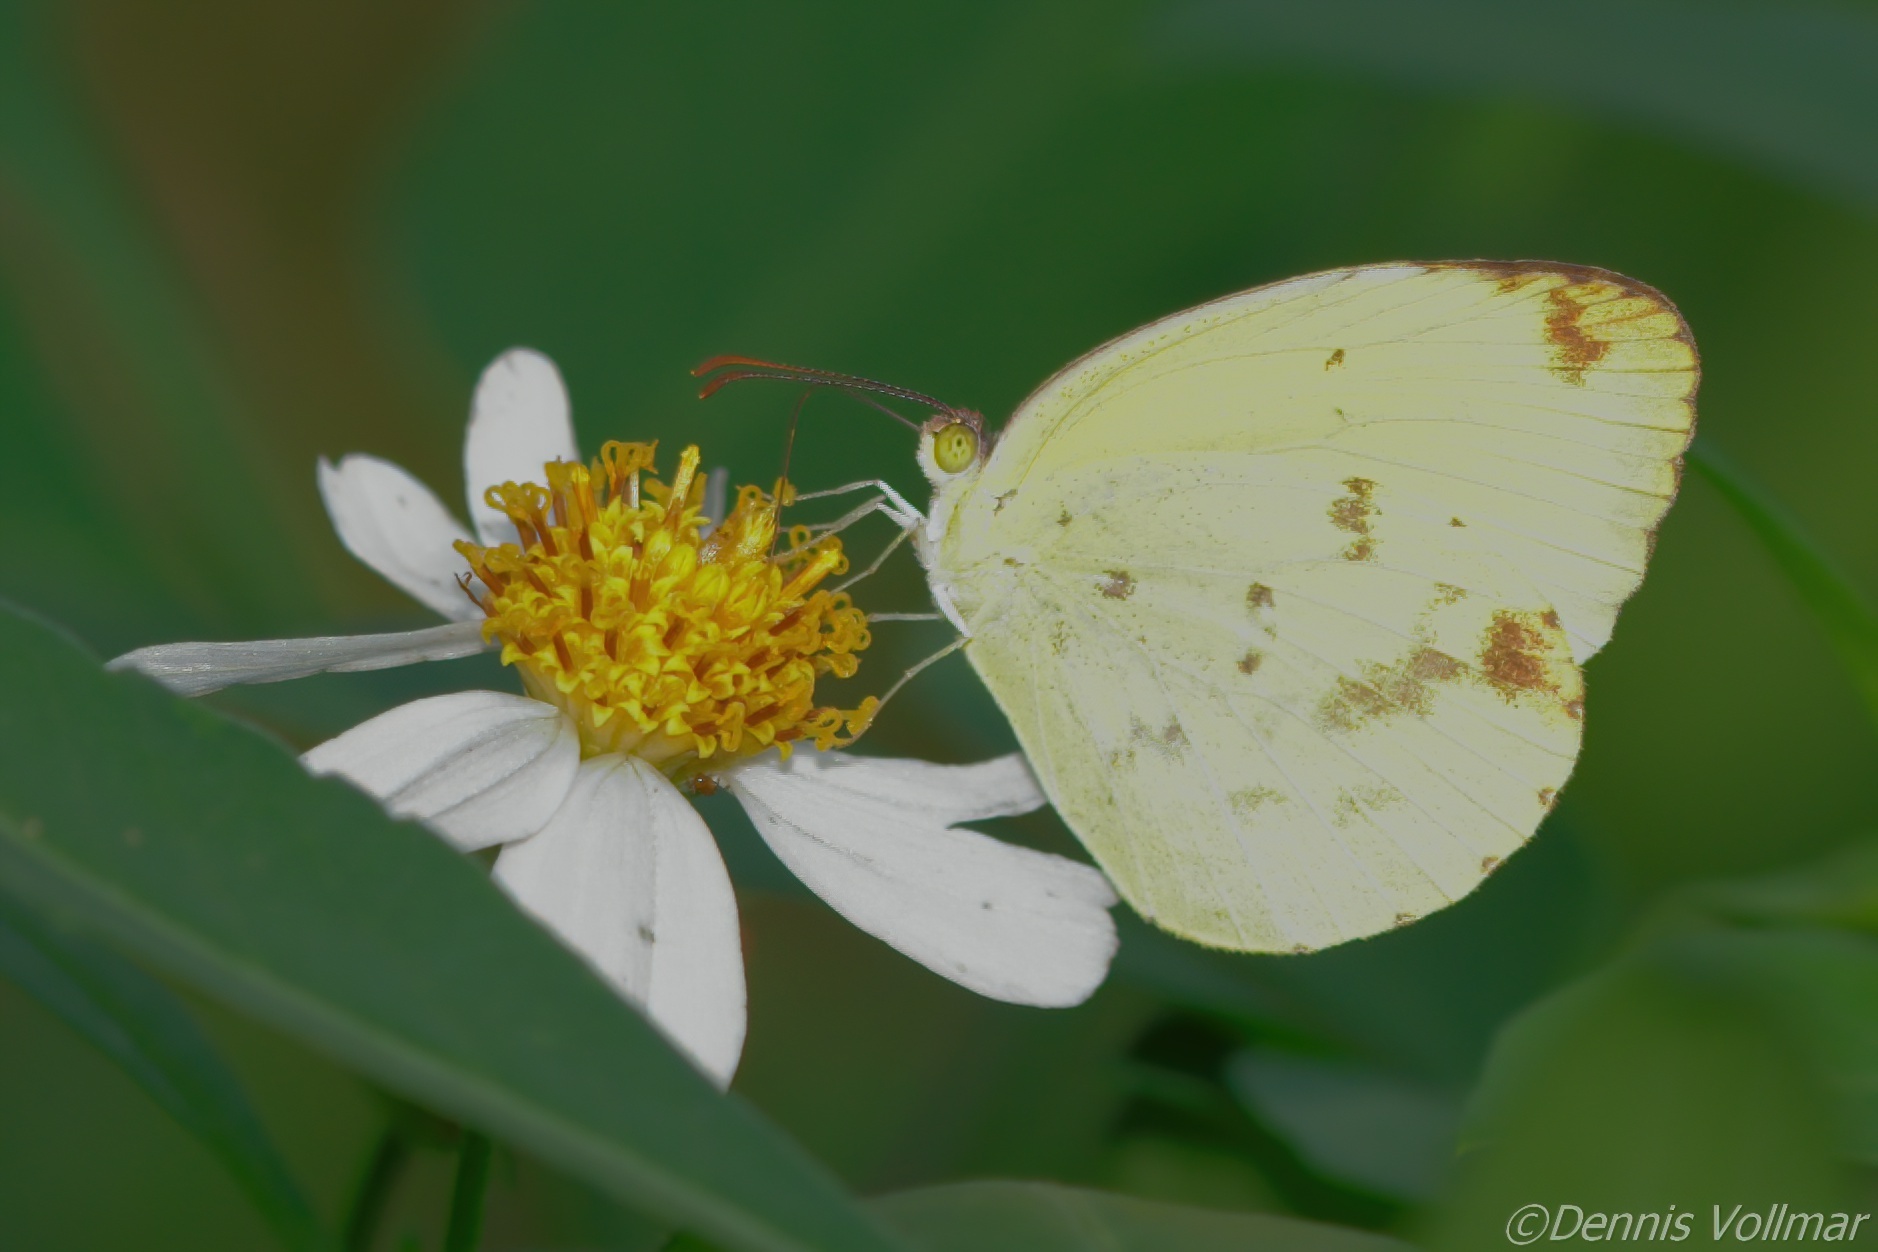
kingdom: Animalia
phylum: Arthropoda
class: Insecta
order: Lepidoptera
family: Pieridae
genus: Pyrisitia
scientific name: Pyrisitia dina
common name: Dina yellow
